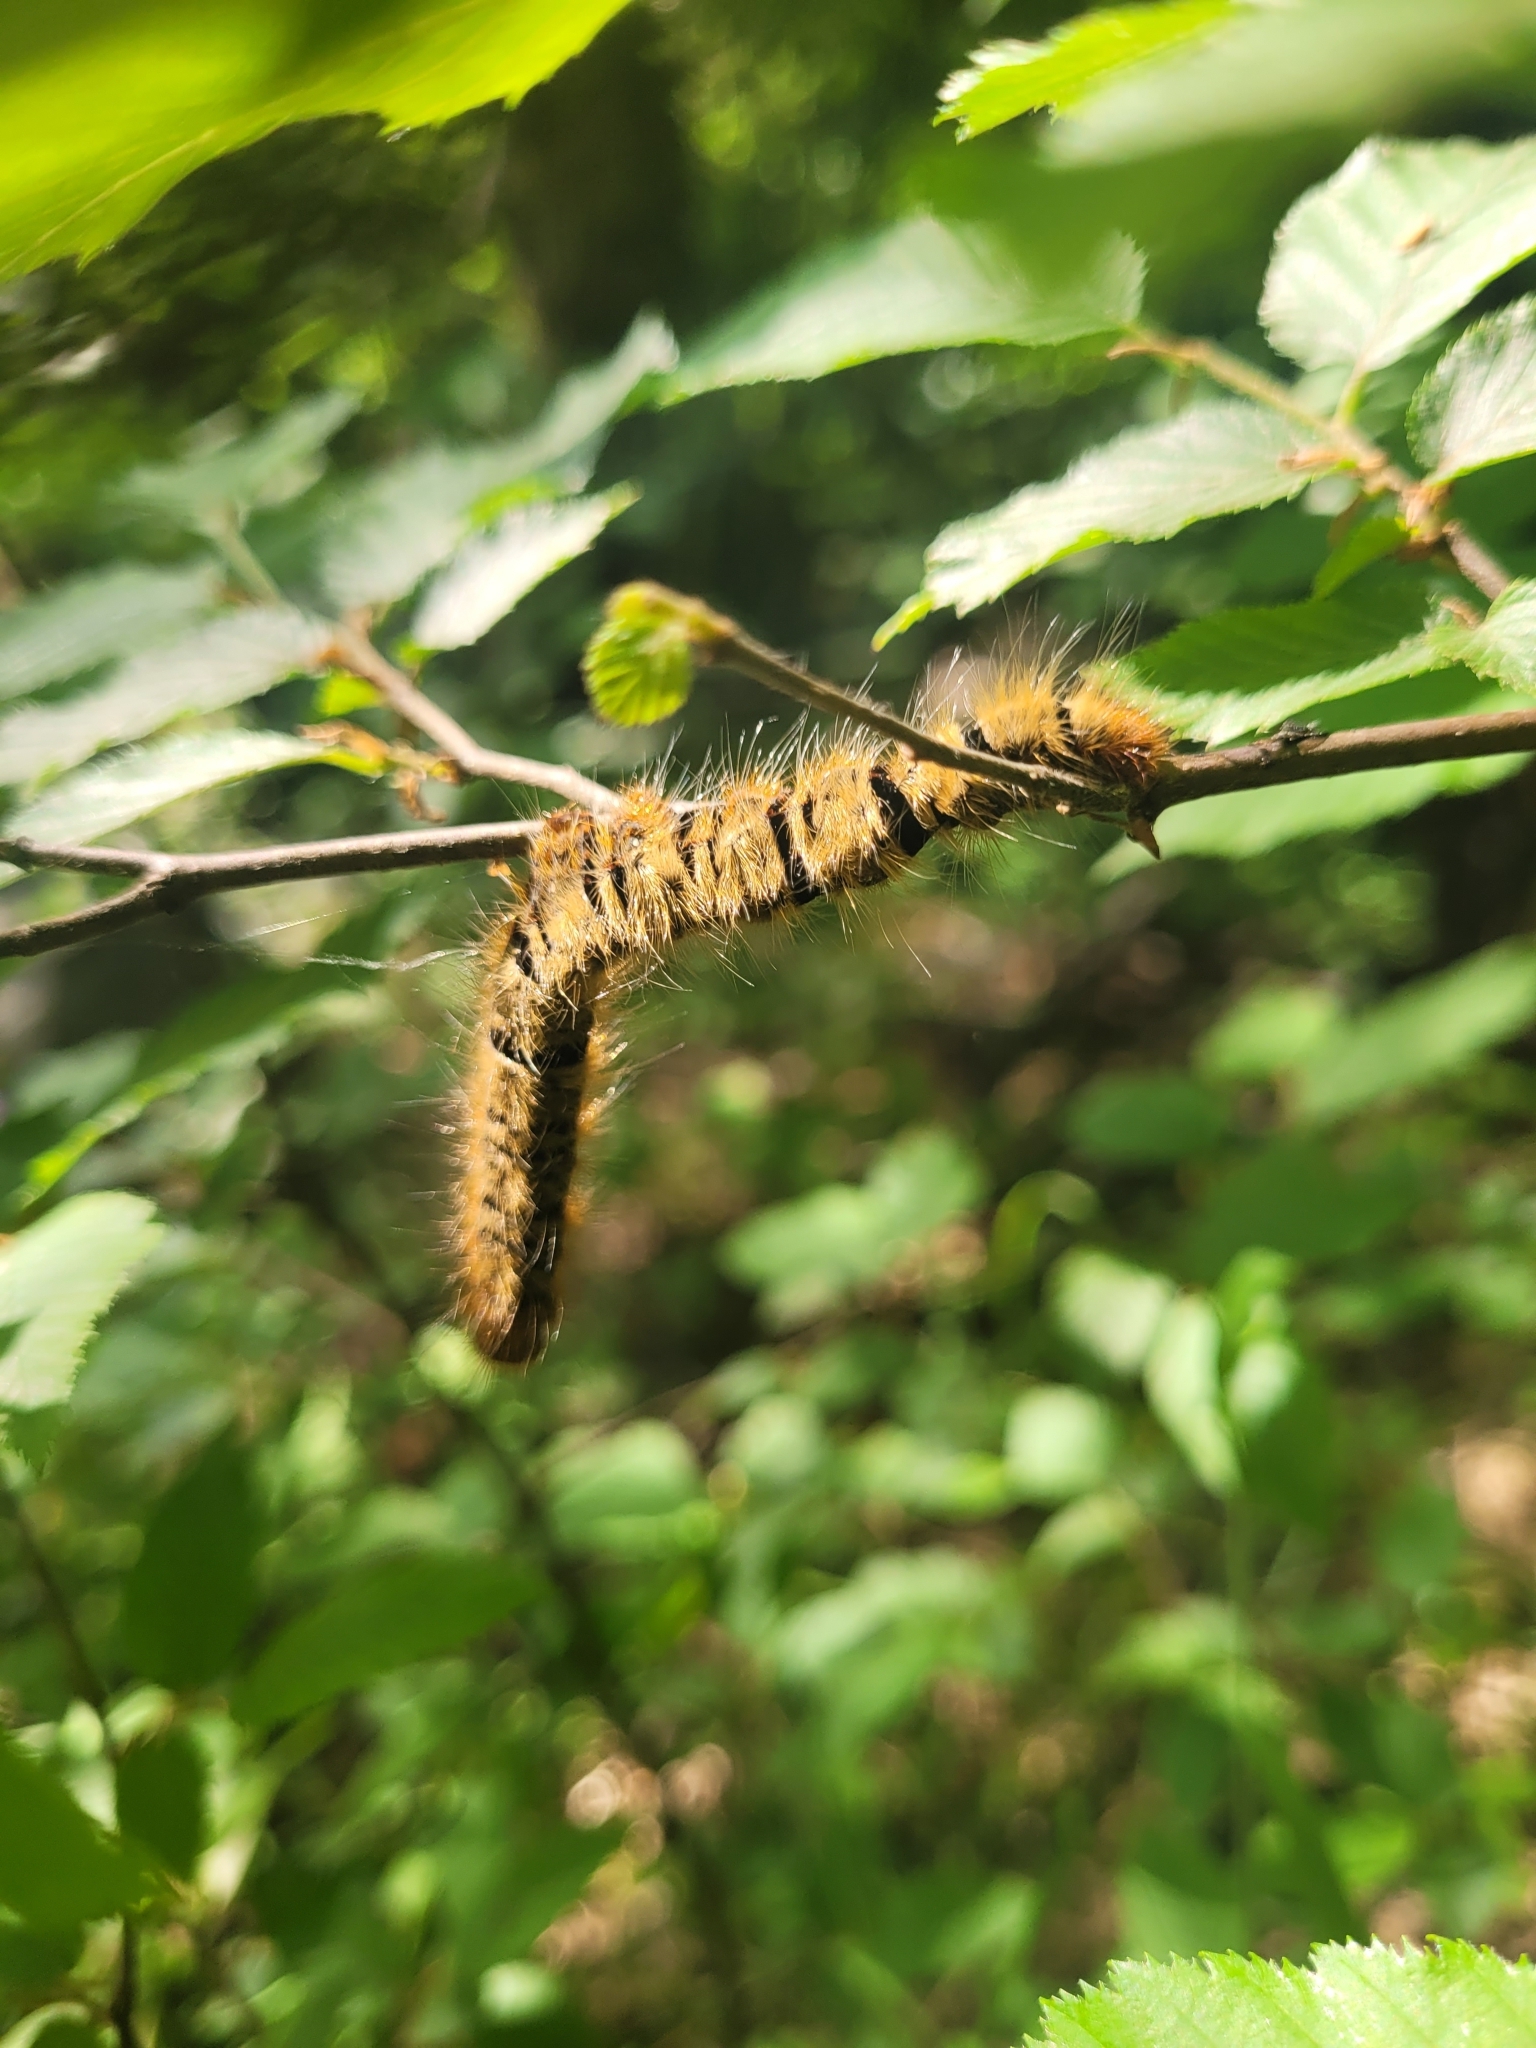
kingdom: Animalia
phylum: Arthropoda
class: Insecta
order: Lepidoptera
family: Lasiocampidae
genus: Lasiocampa
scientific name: Lasiocampa quercus
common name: Oak eggar
